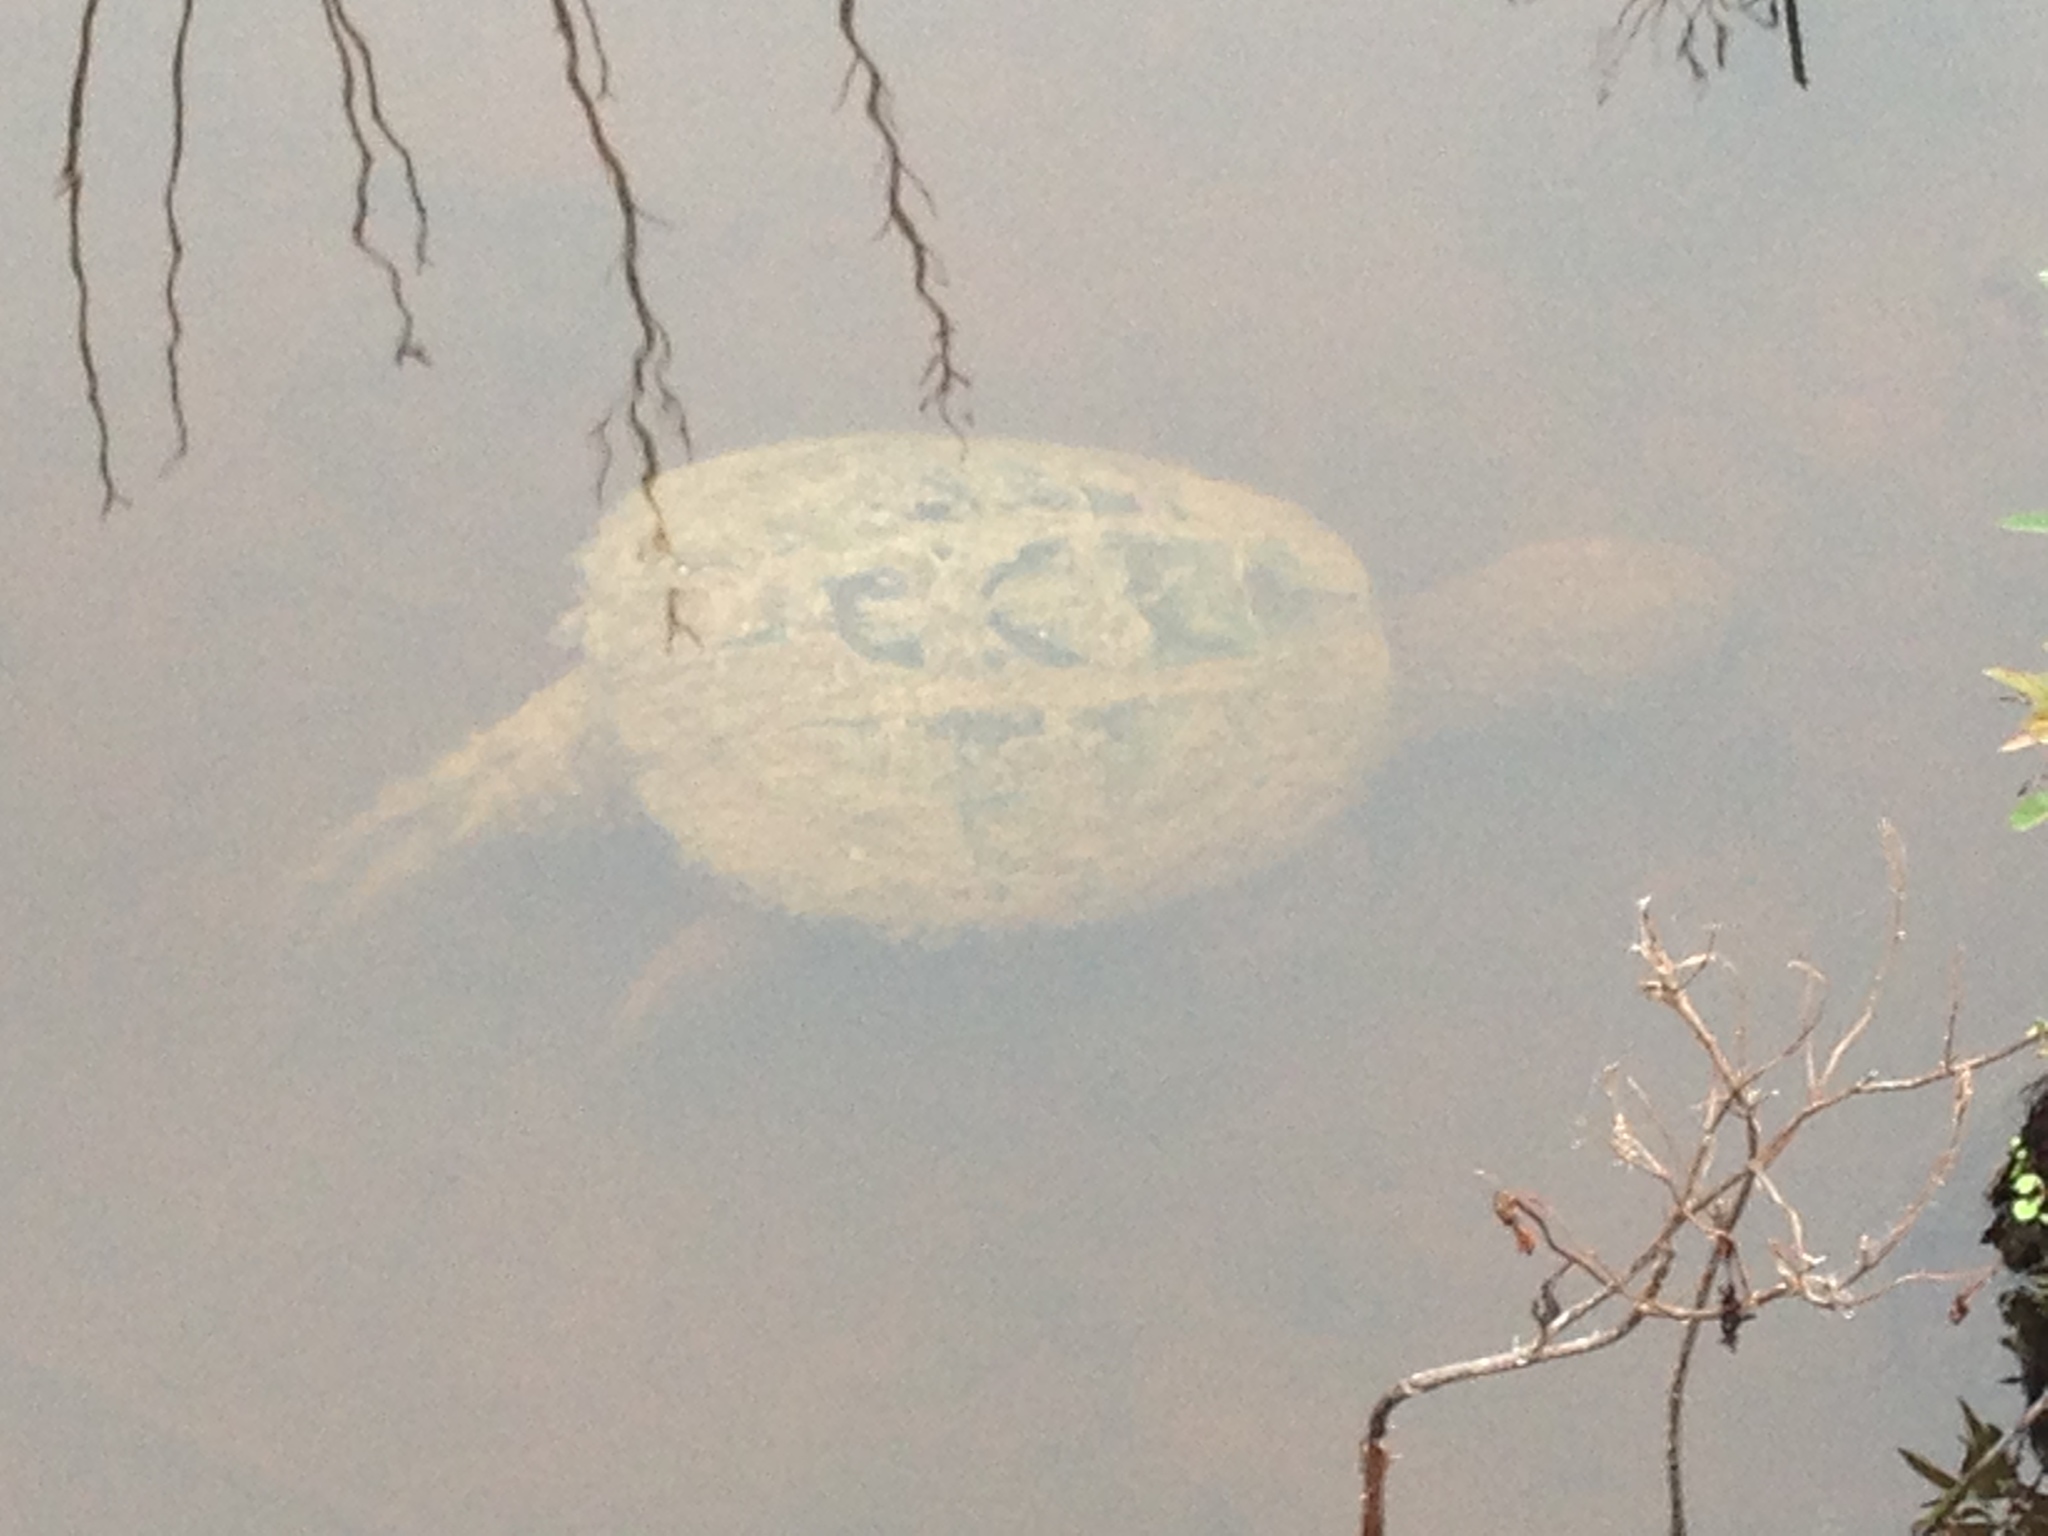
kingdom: Animalia
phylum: Chordata
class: Testudines
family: Chelydridae
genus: Chelydra
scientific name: Chelydra serpentina
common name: Common snapping turtle
